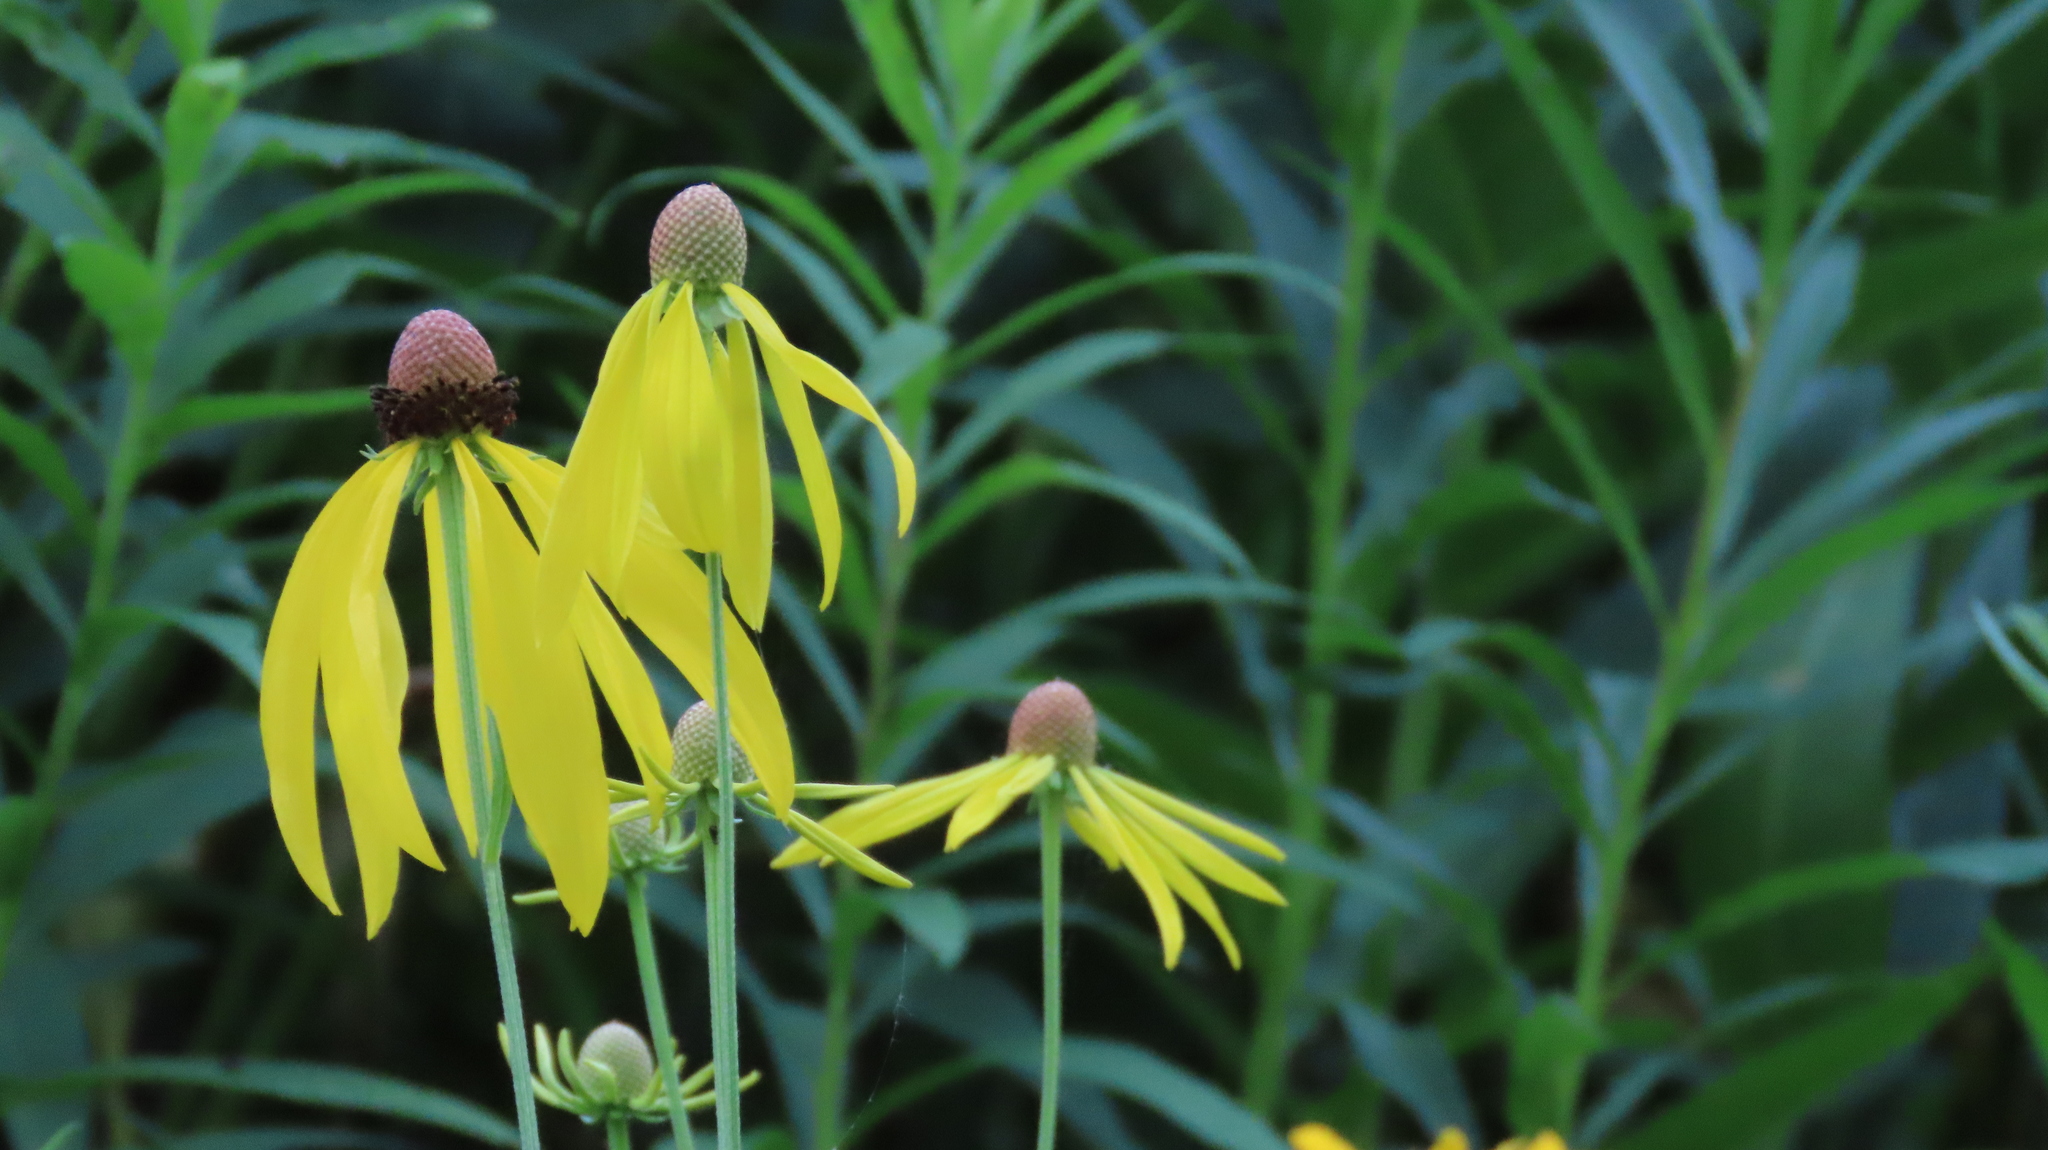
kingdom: Plantae
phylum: Tracheophyta
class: Magnoliopsida
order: Asterales
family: Asteraceae
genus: Ratibida
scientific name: Ratibida pinnata
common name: Drooping prairie-coneflower
